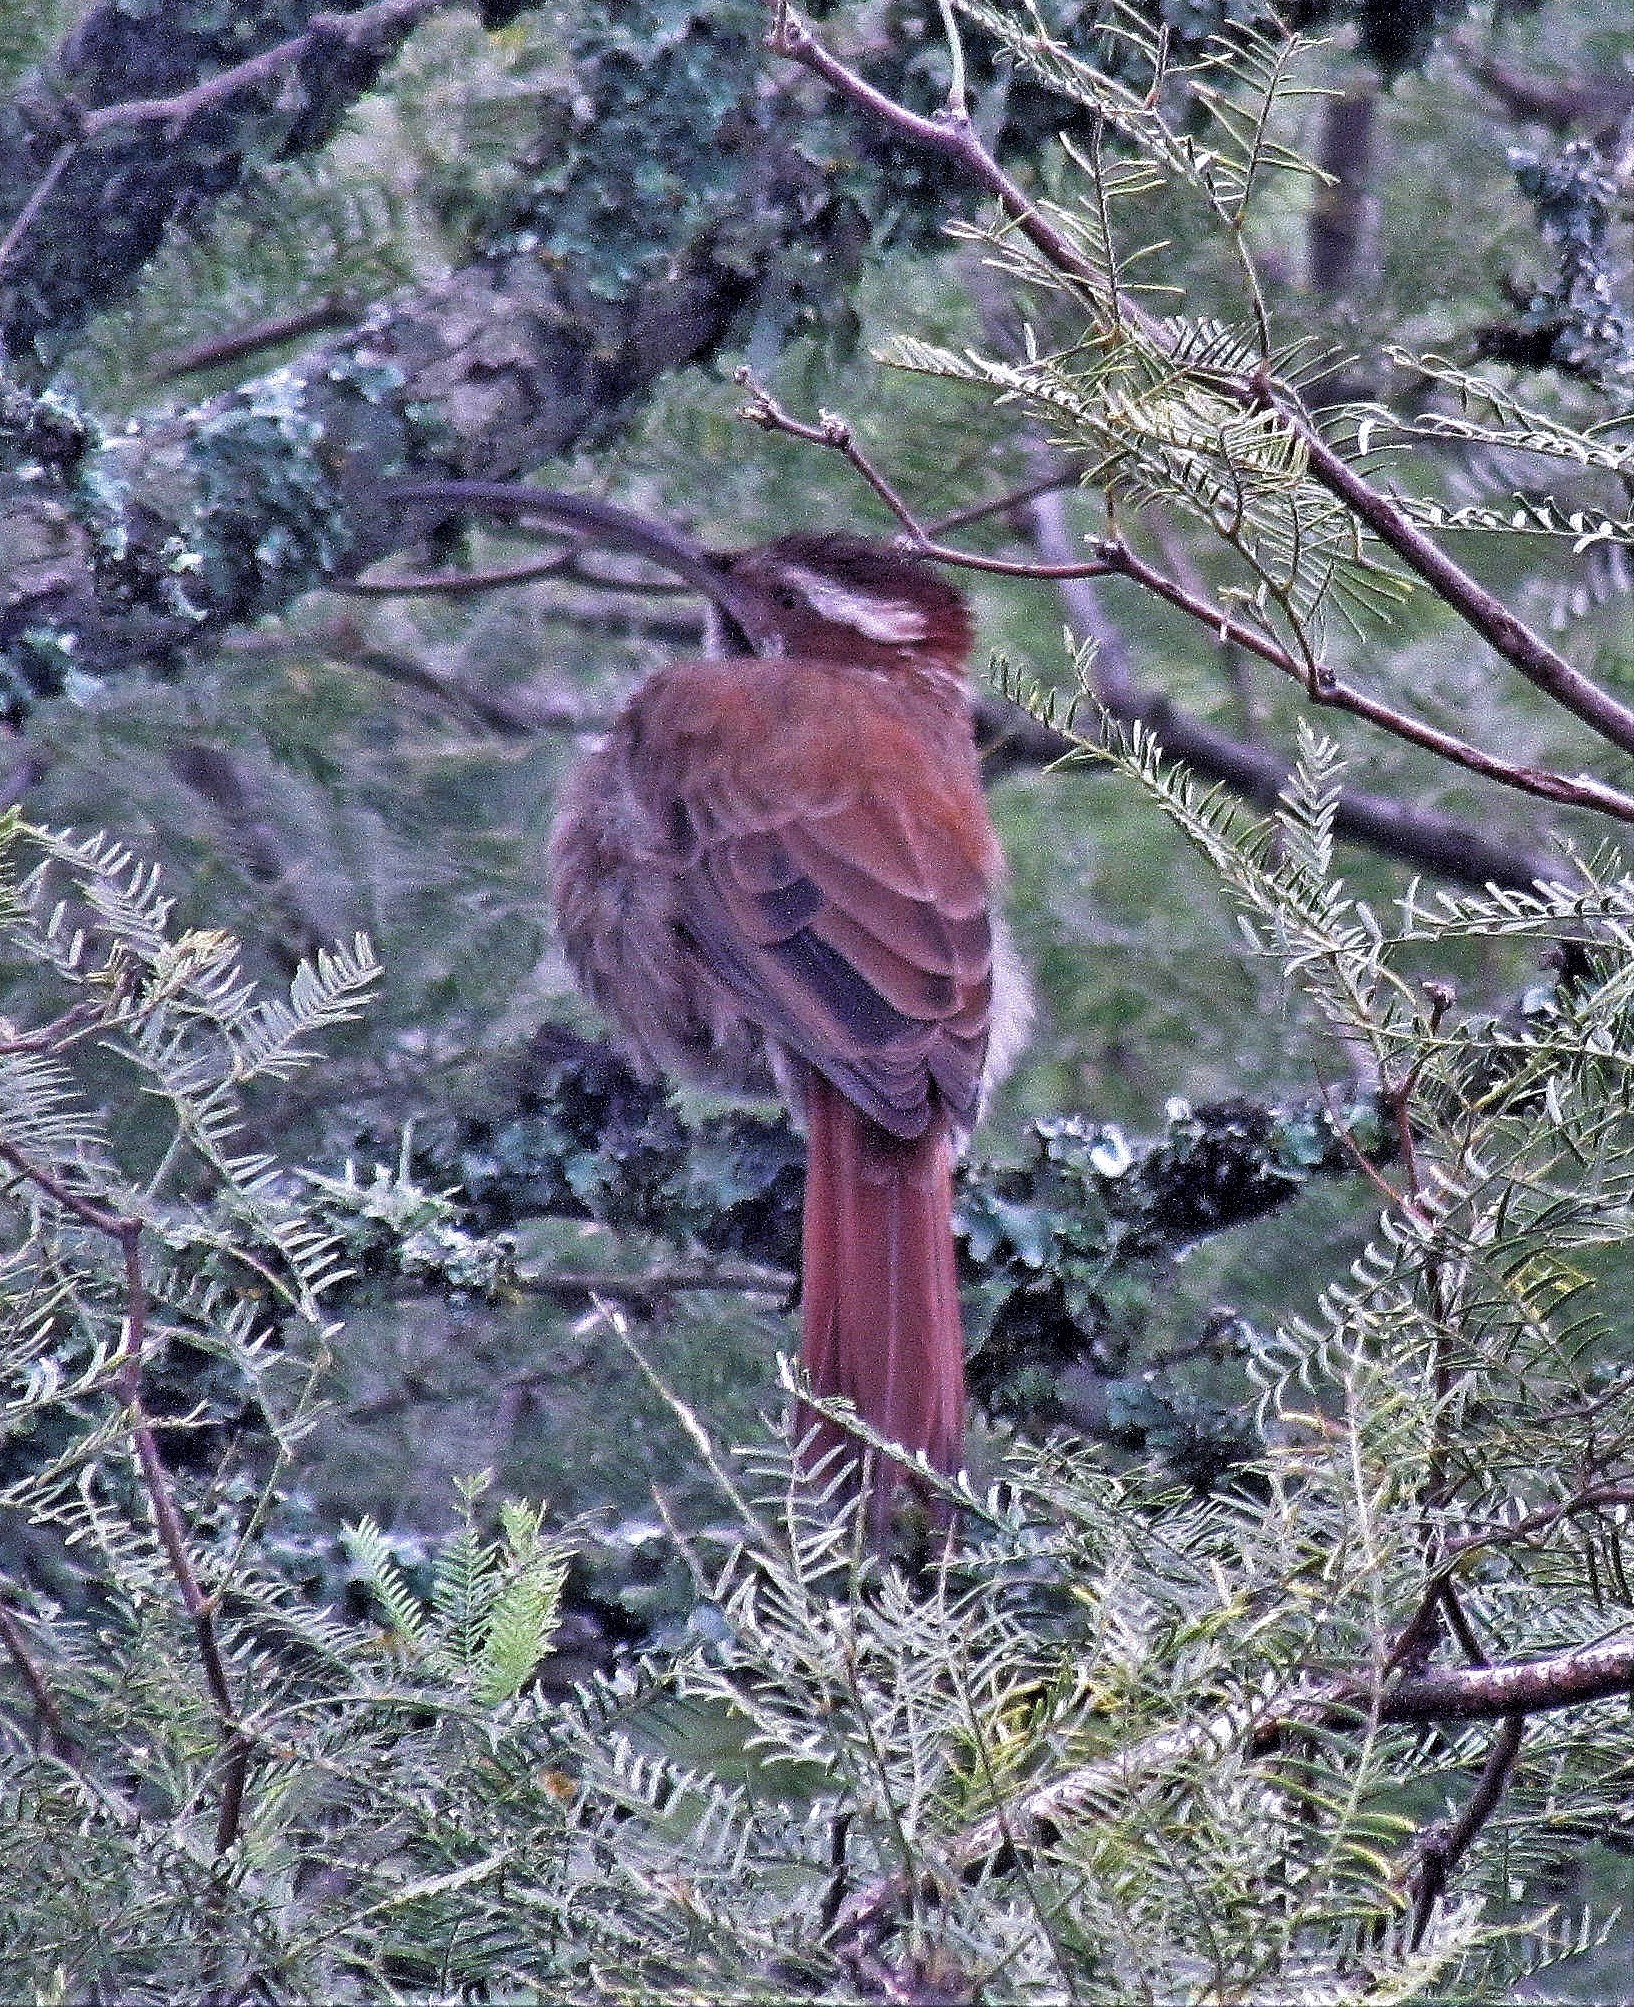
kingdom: Animalia
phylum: Chordata
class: Aves
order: Passeriformes
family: Furnariidae
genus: Drymornis
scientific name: Drymornis bridgesii
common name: Scimitar-billed woodcreeper
